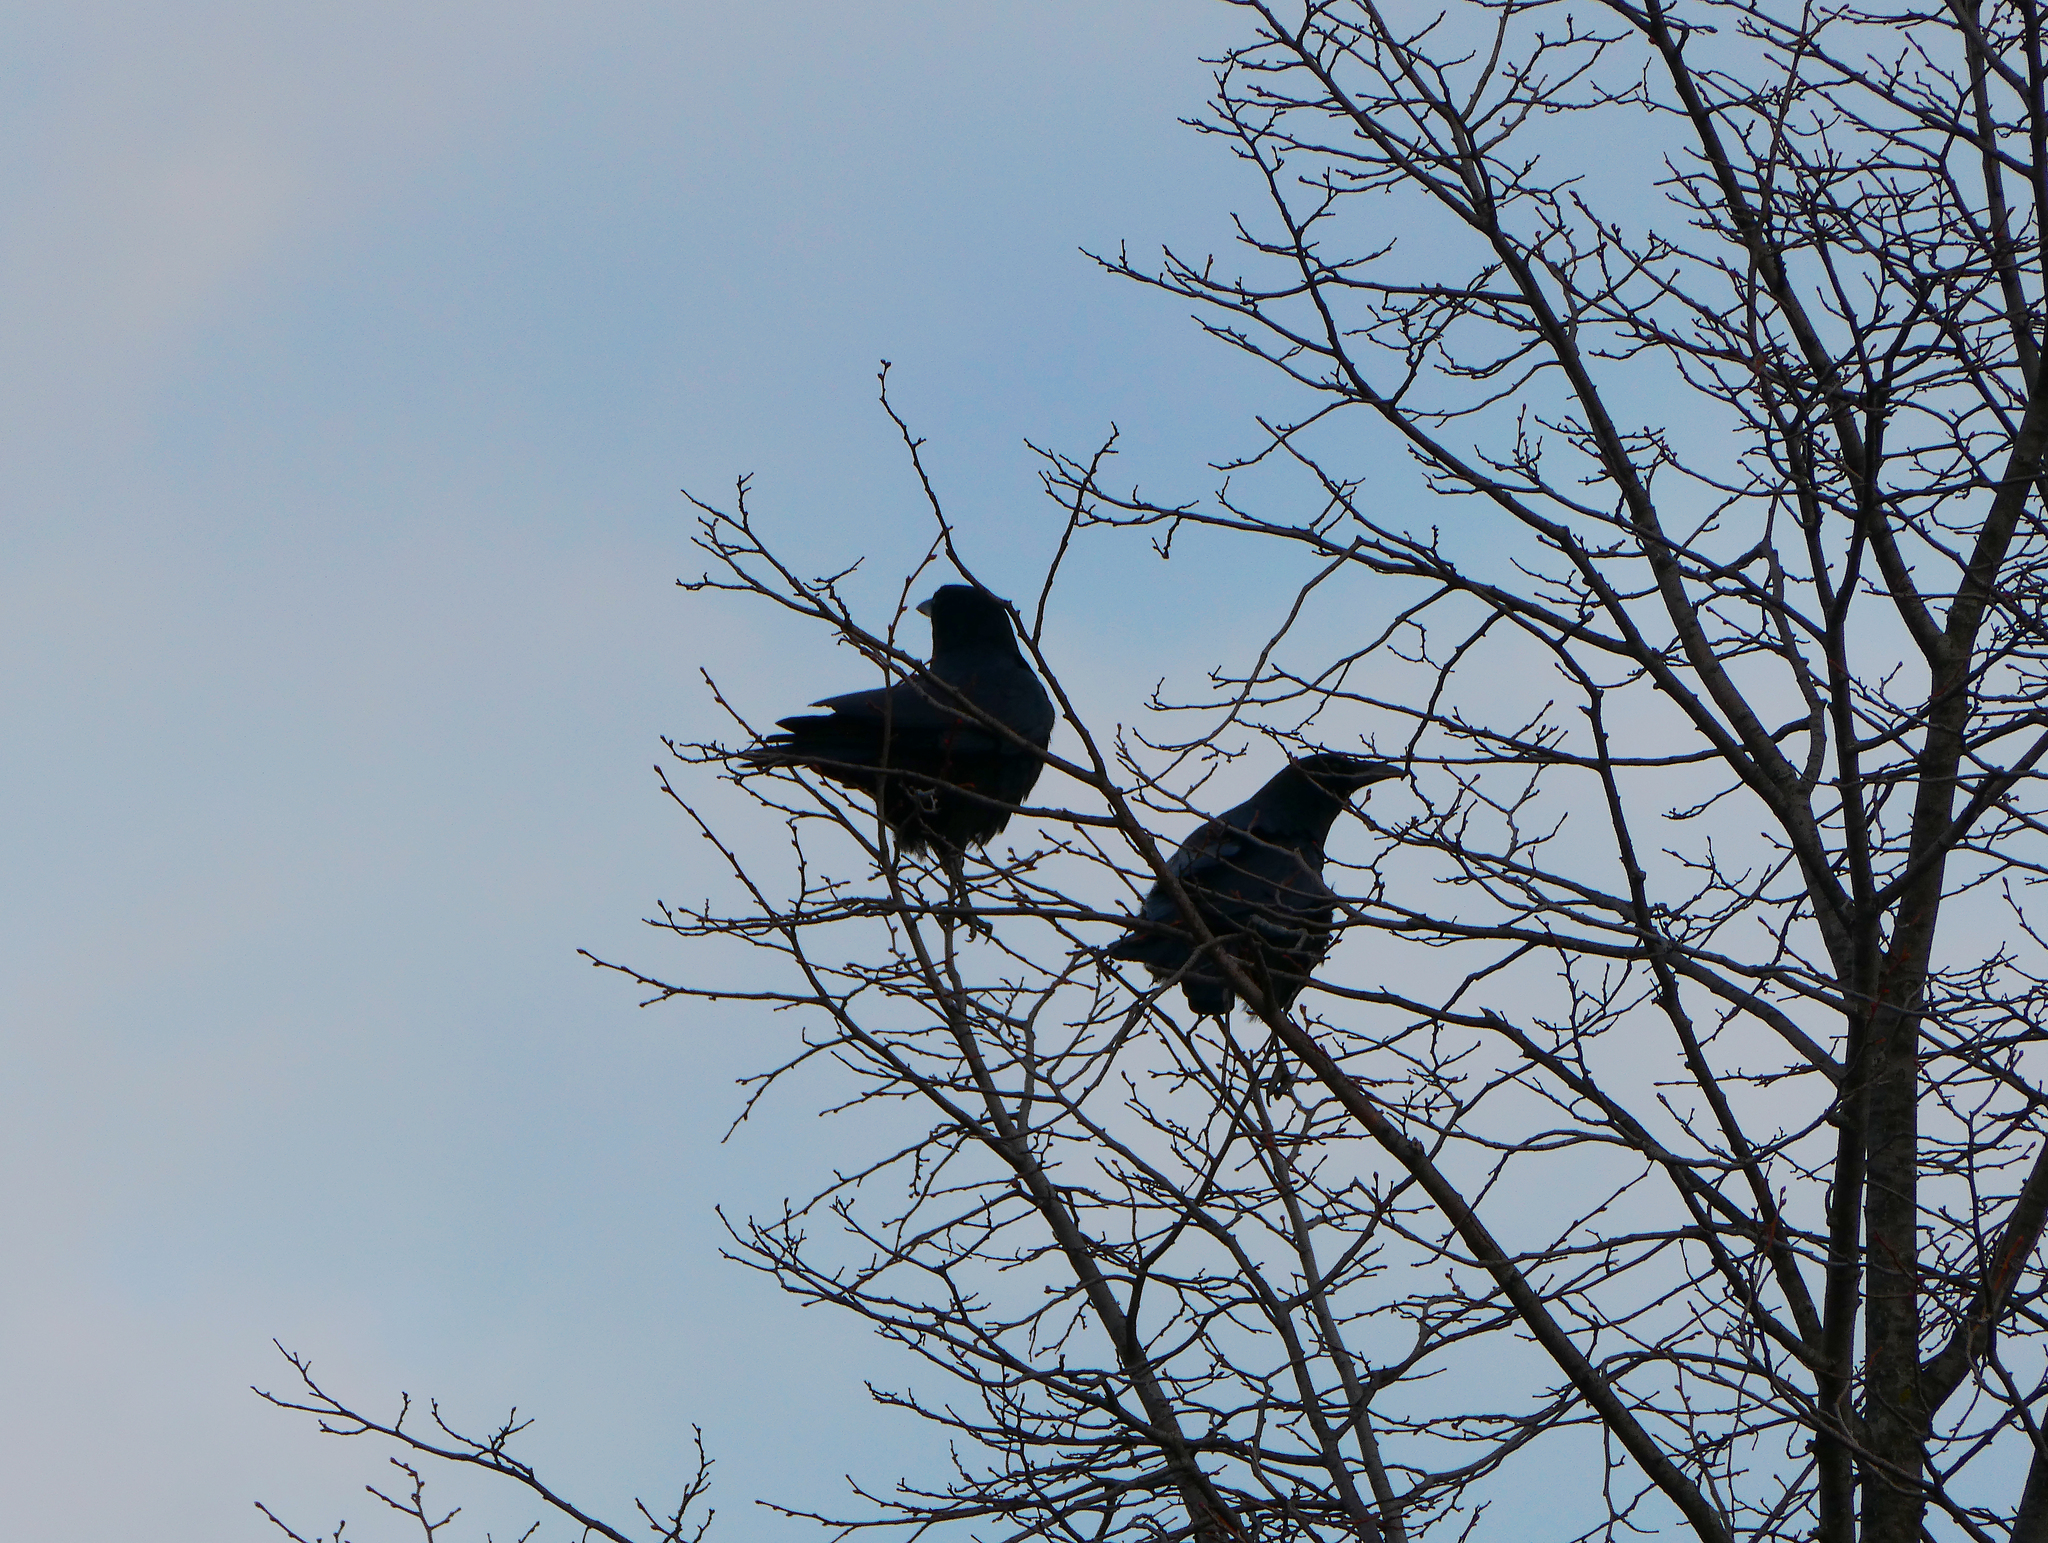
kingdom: Animalia
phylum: Chordata
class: Aves
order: Passeriformes
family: Corvidae
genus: Corvus
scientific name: Corvus brachyrhynchos
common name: American crow
